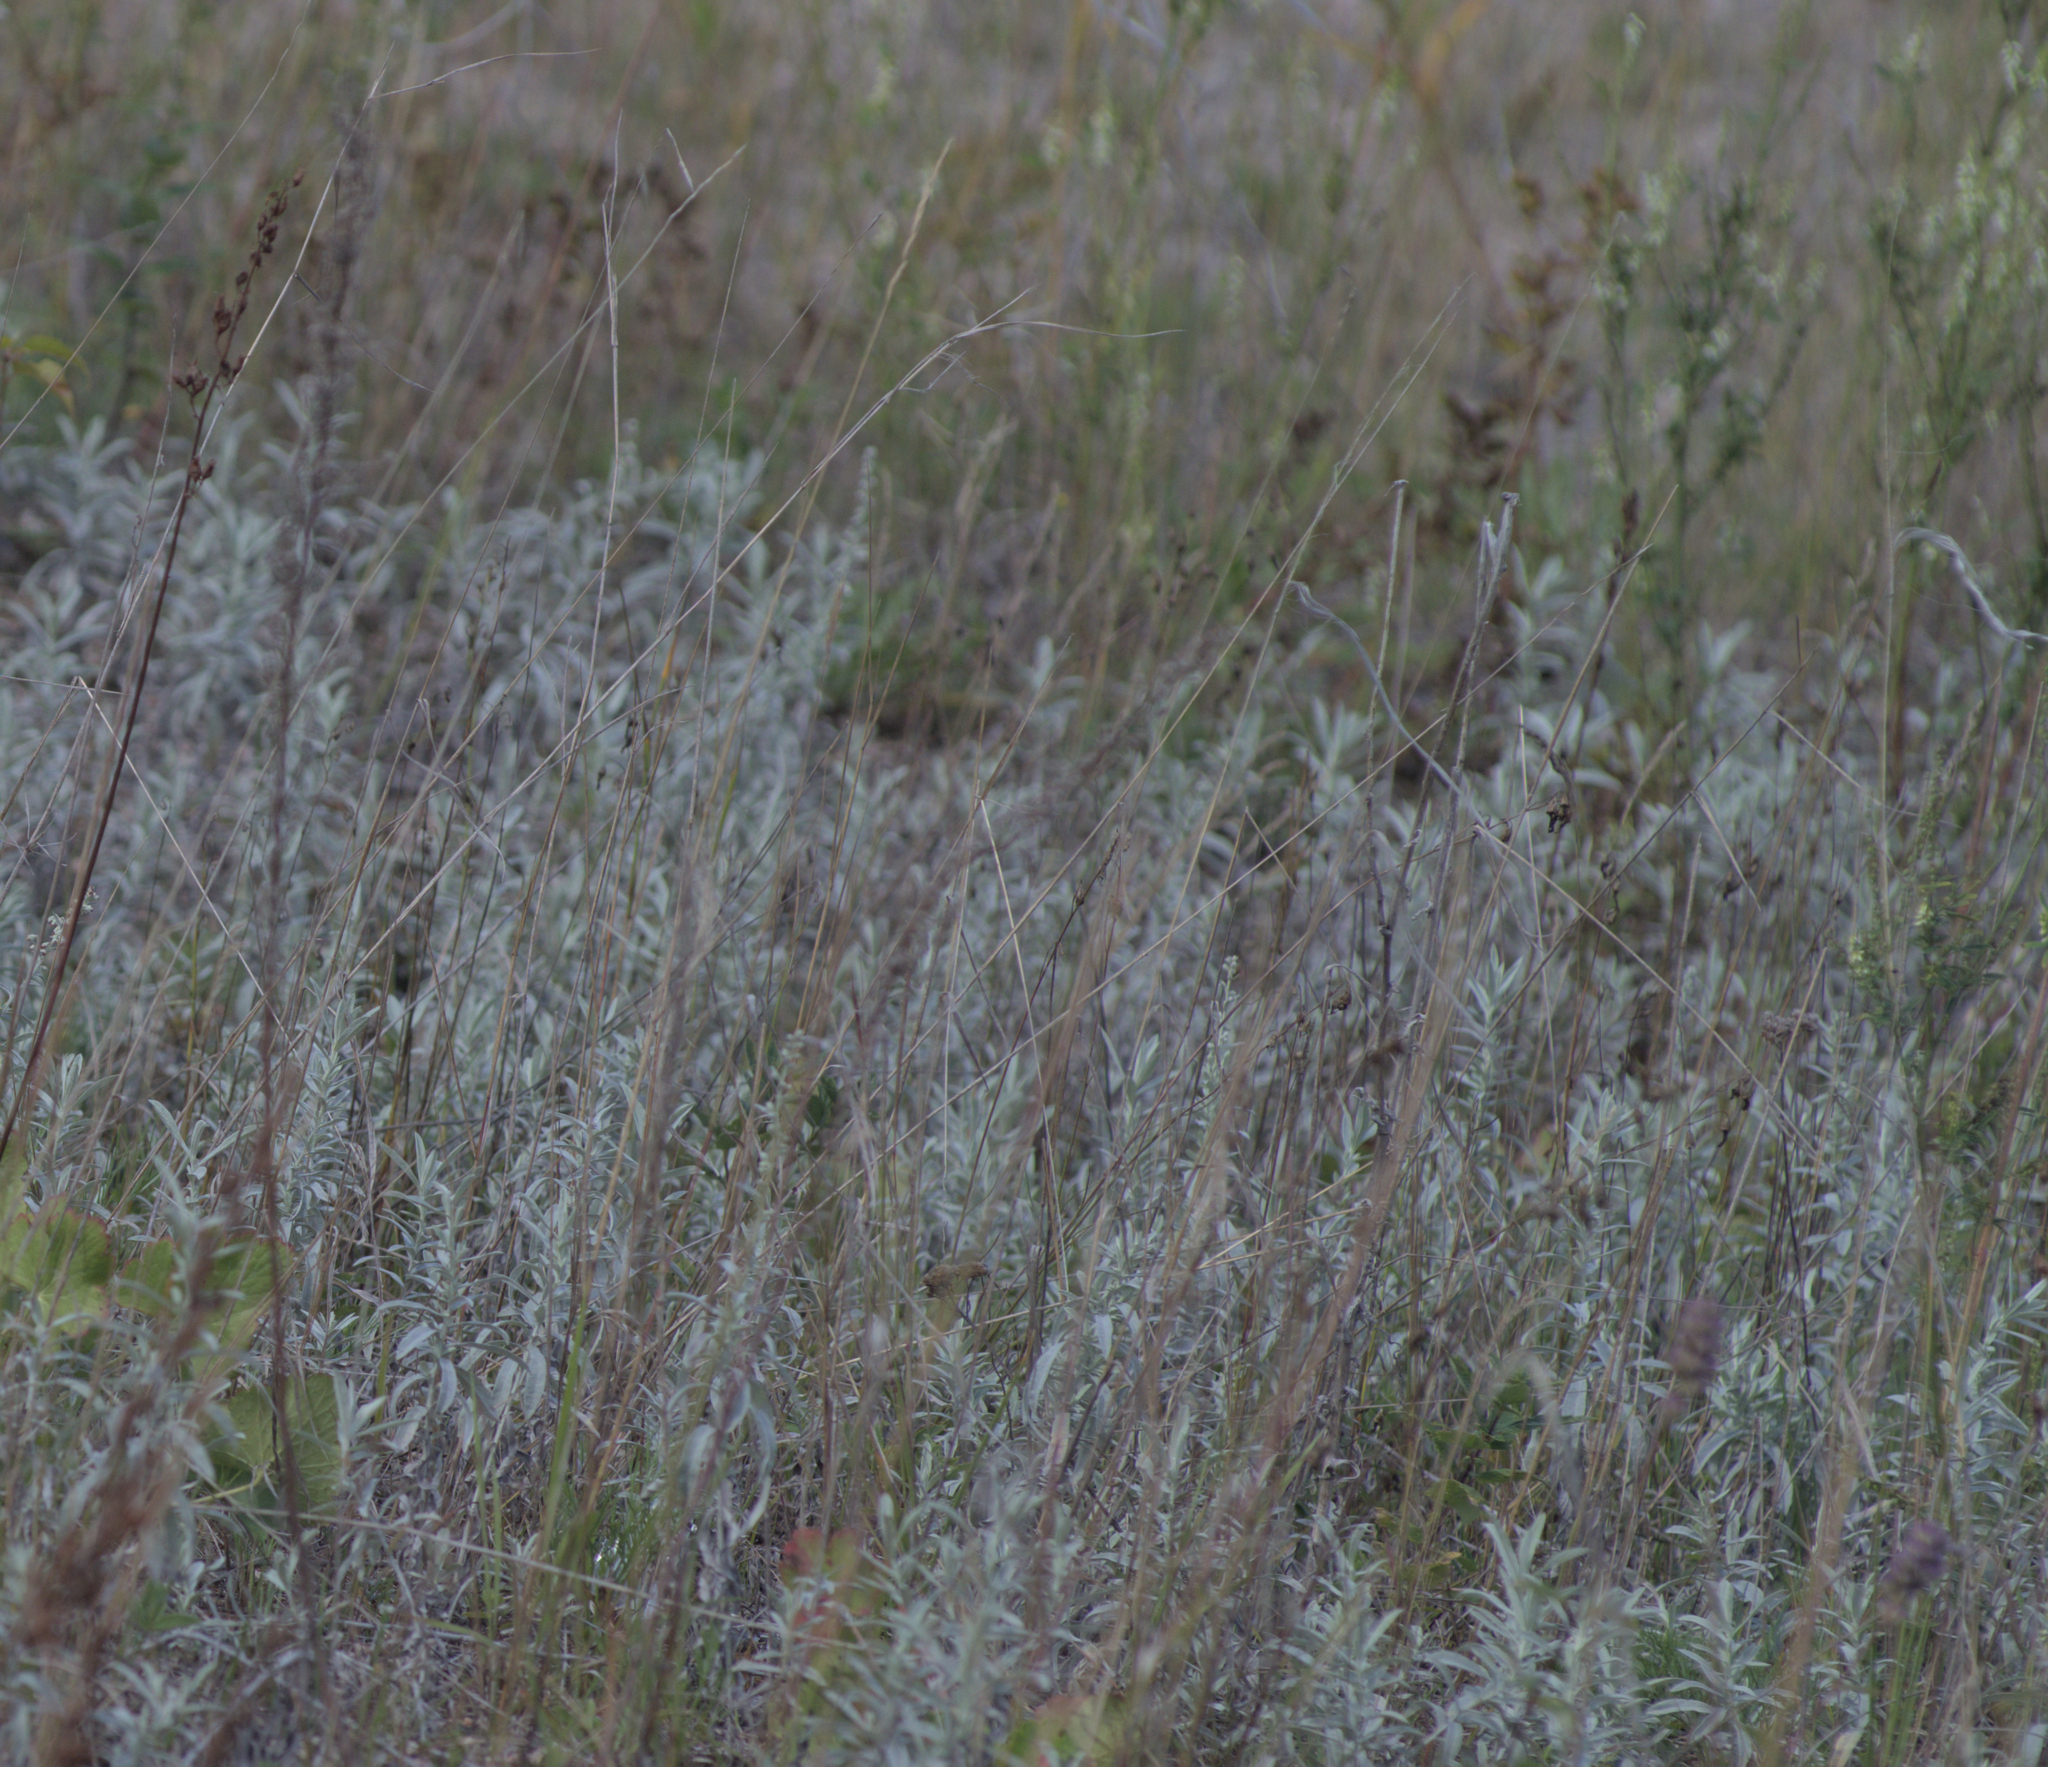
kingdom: Plantae
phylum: Tracheophyta
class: Magnoliopsida
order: Asterales
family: Asteraceae
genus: Artemisia
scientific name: Artemisia ludoviciana
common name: Western mugwort
